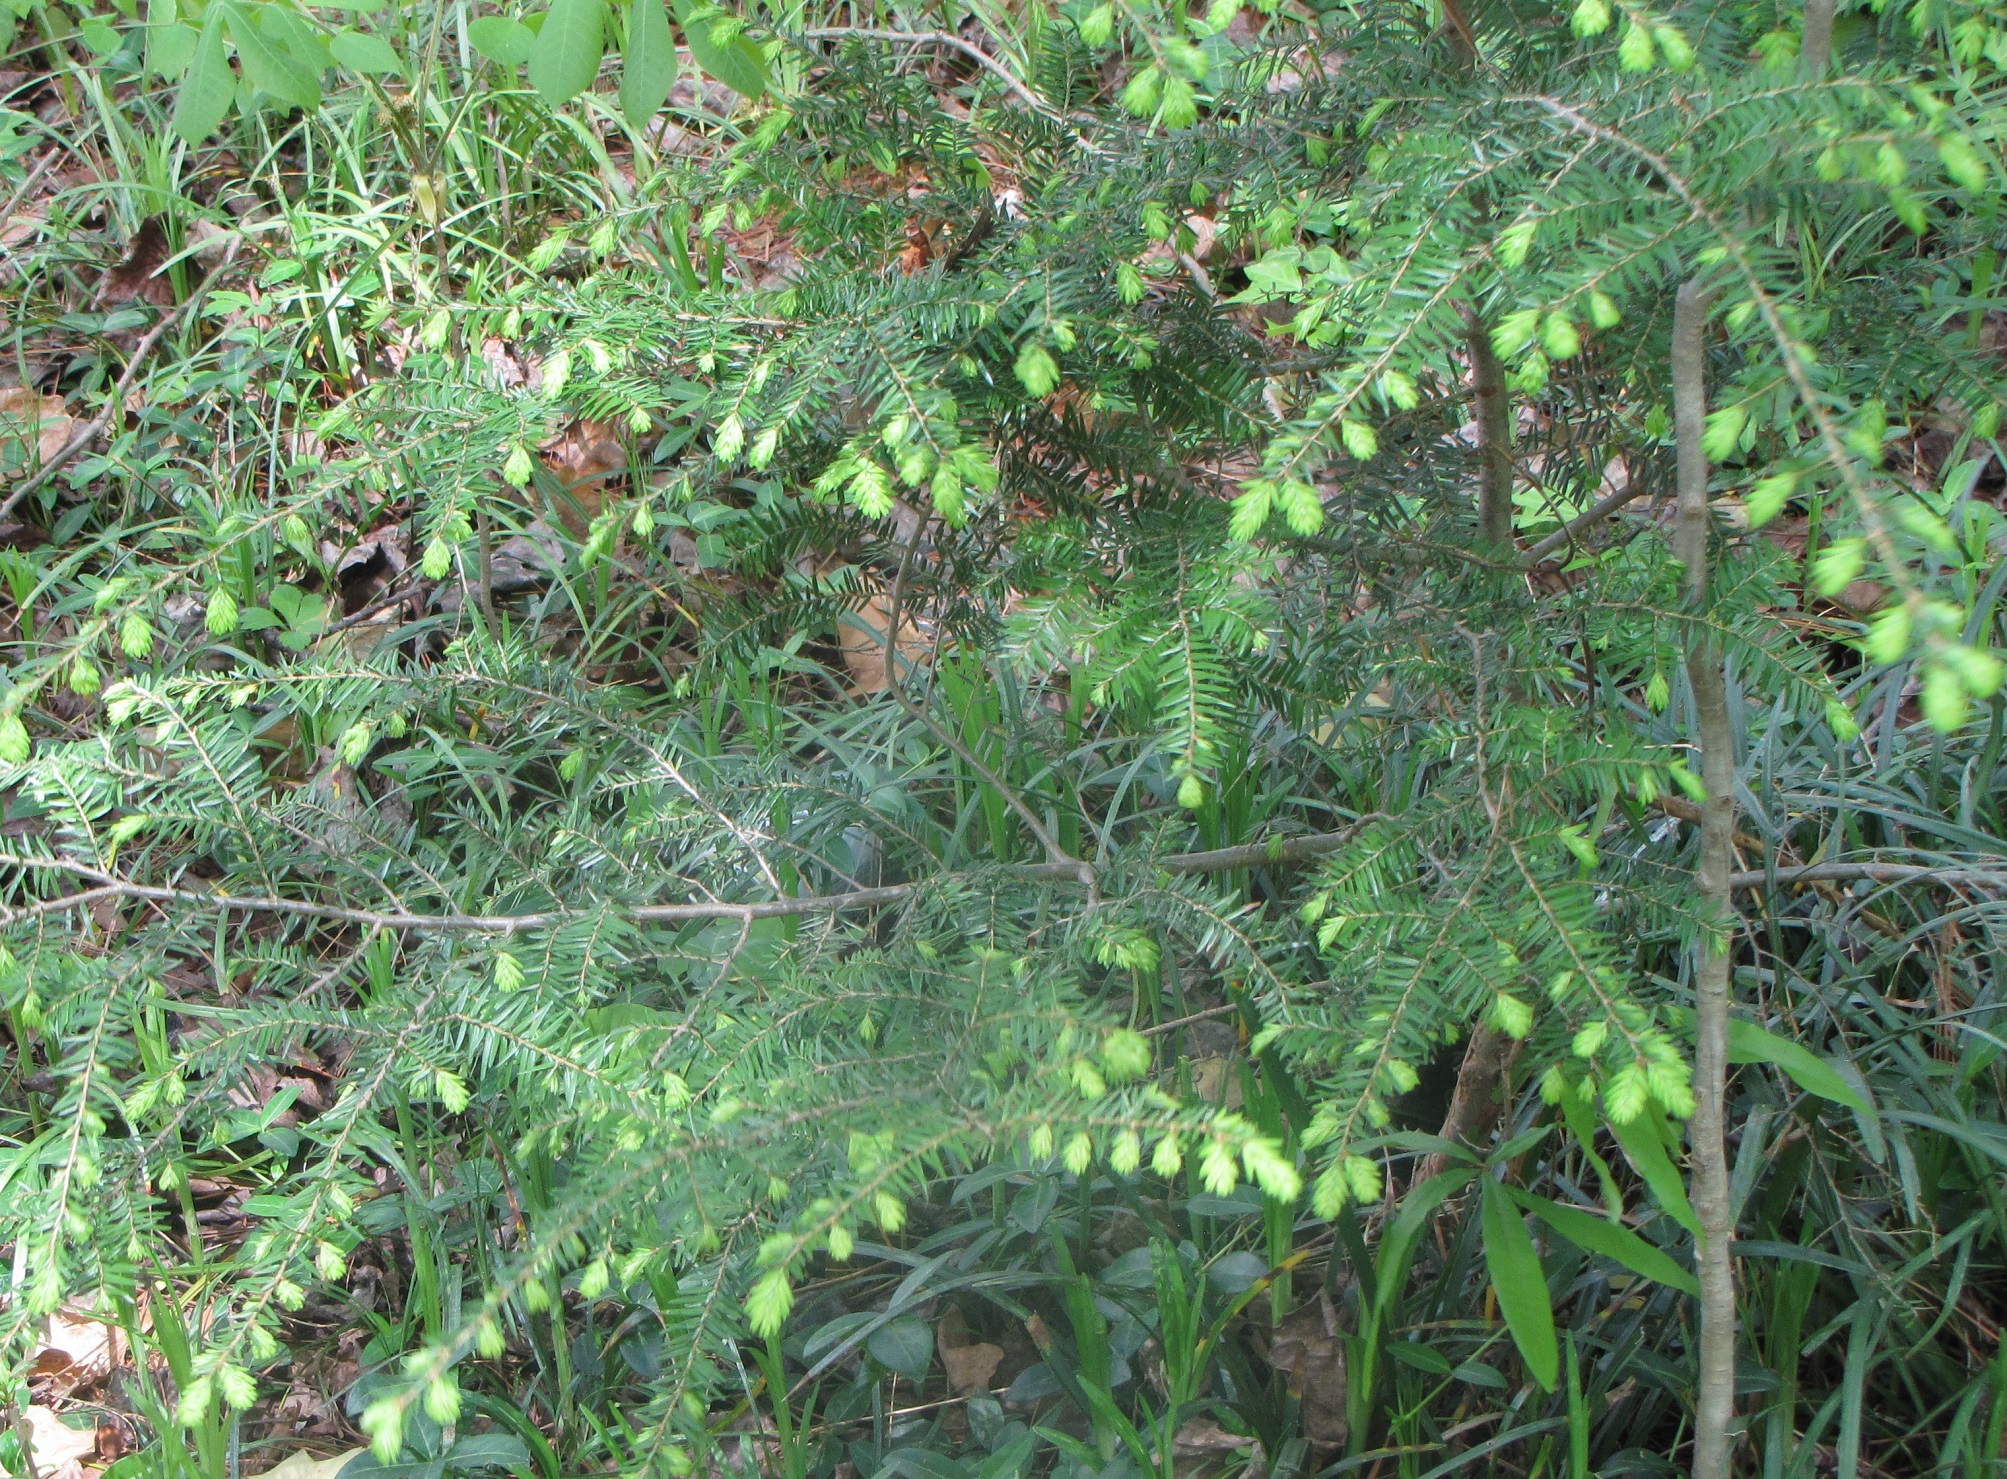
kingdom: Plantae
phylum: Tracheophyta
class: Pinopsida
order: Pinales
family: Pinaceae
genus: Tsuga
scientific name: Tsuga canadensis
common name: Eastern hemlock
